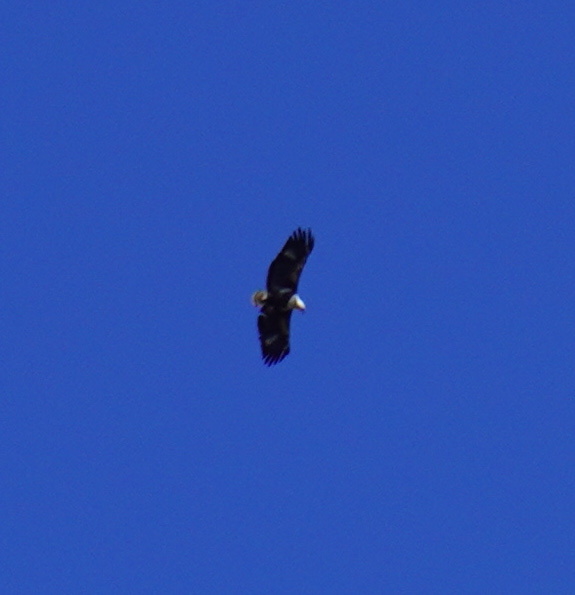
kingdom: Animalia
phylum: Chordata
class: Aves
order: Accipitriformes
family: Accipitridae
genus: Haliaeetus
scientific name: Haliaeetus vocifer
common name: African fish eagle
